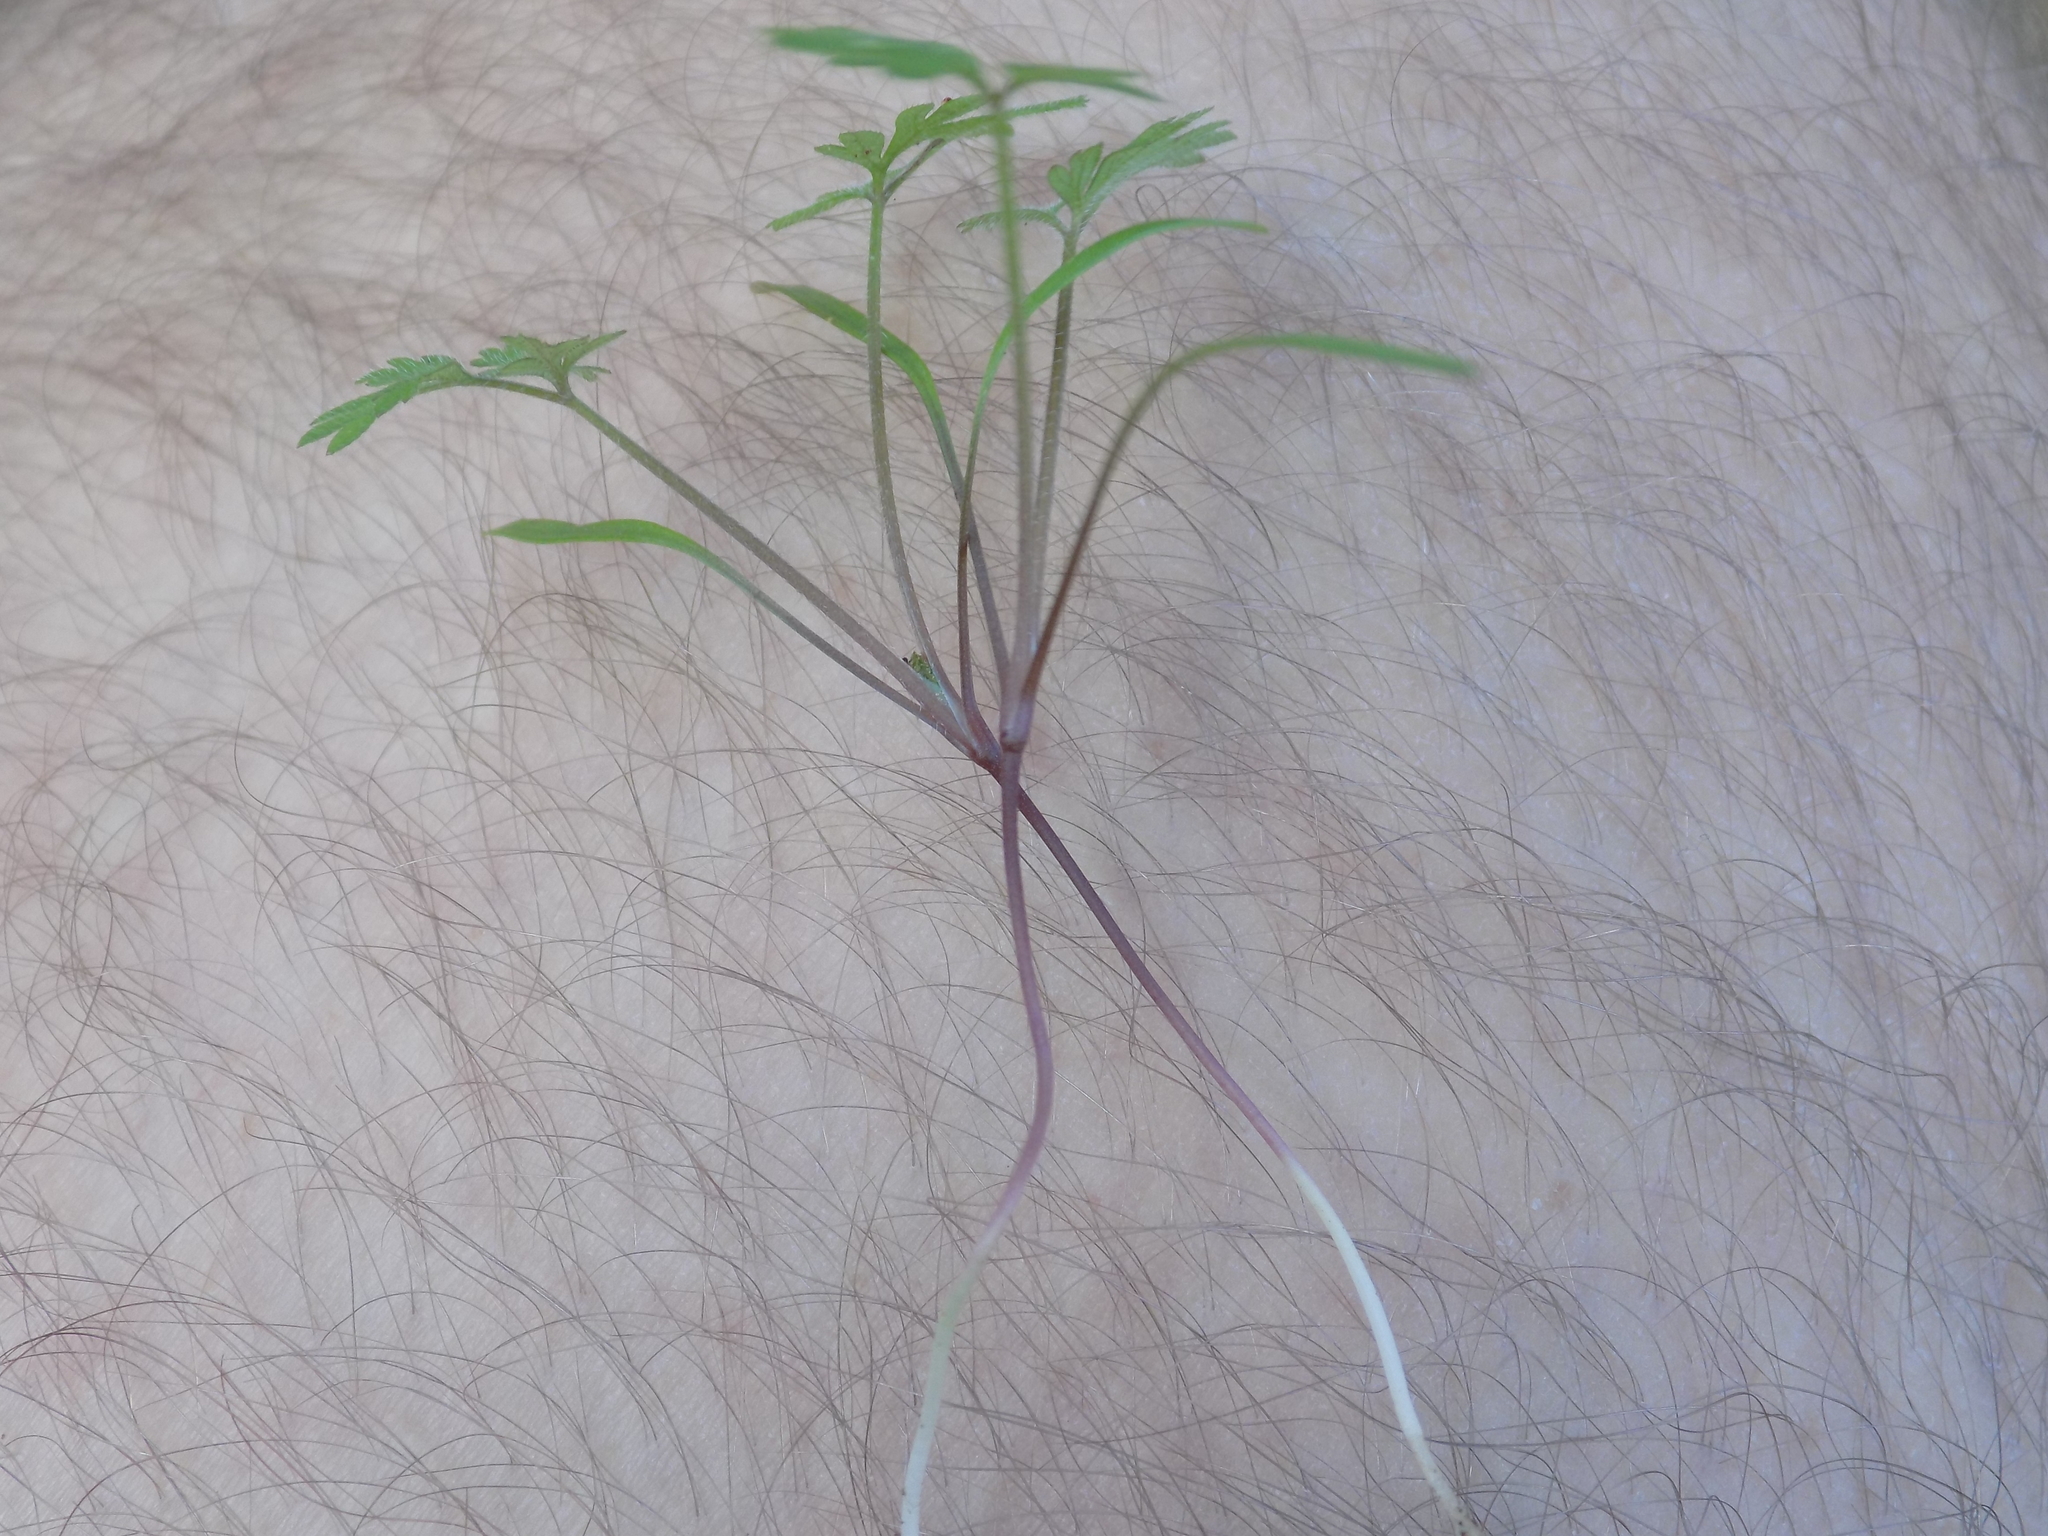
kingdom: Plantae
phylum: Tracheophyta
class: Magnoliopsida
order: Apiales
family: Apiaceae
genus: Torilis
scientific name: Torilis arvensis
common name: Spreading hedge-parsley
